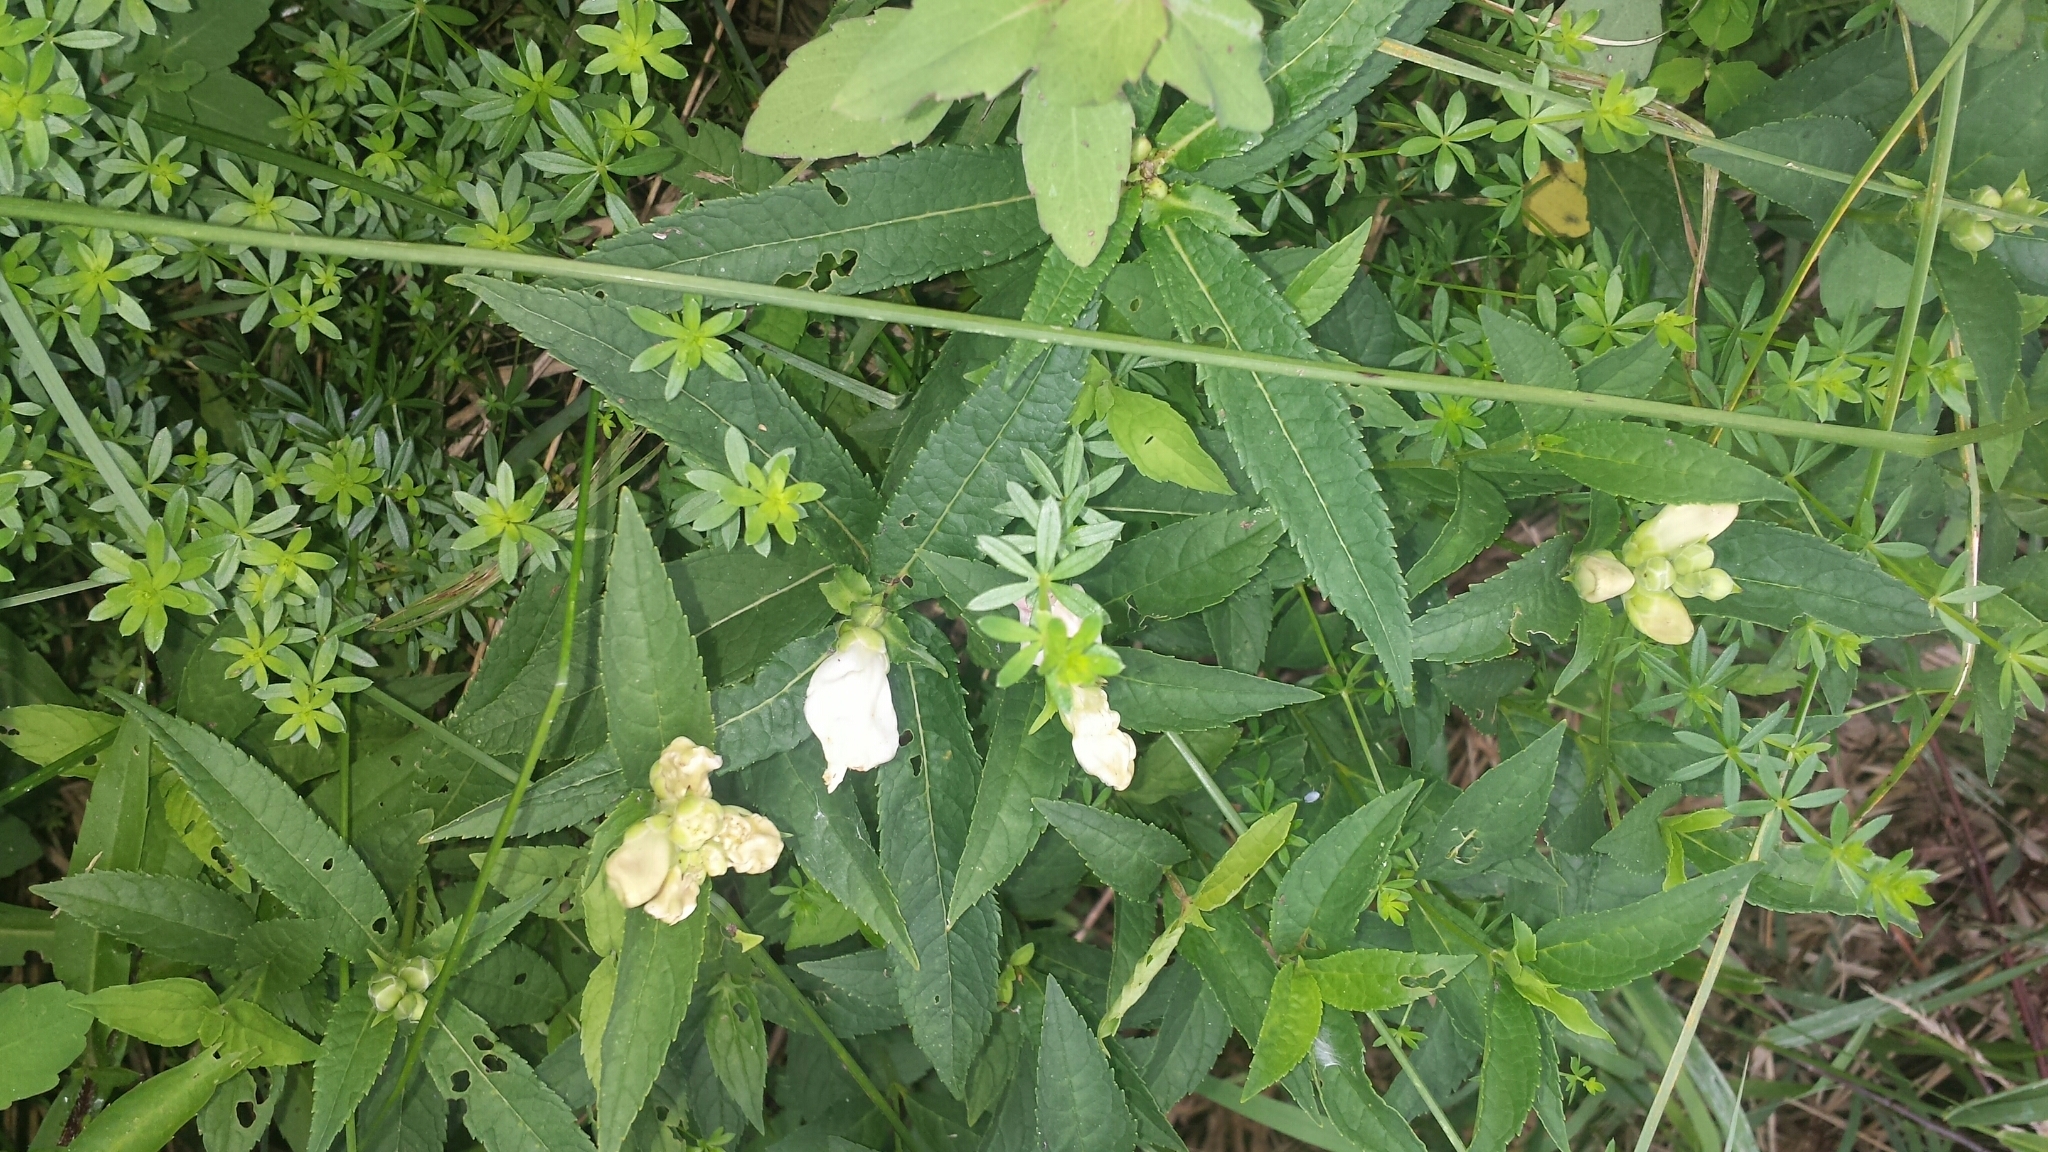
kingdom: Plantae
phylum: Tracheophyta
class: Magnoliopsida
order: Lamiales
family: Plantaginaceae
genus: Chelone
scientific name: Chelone glabra
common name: Snakehead
